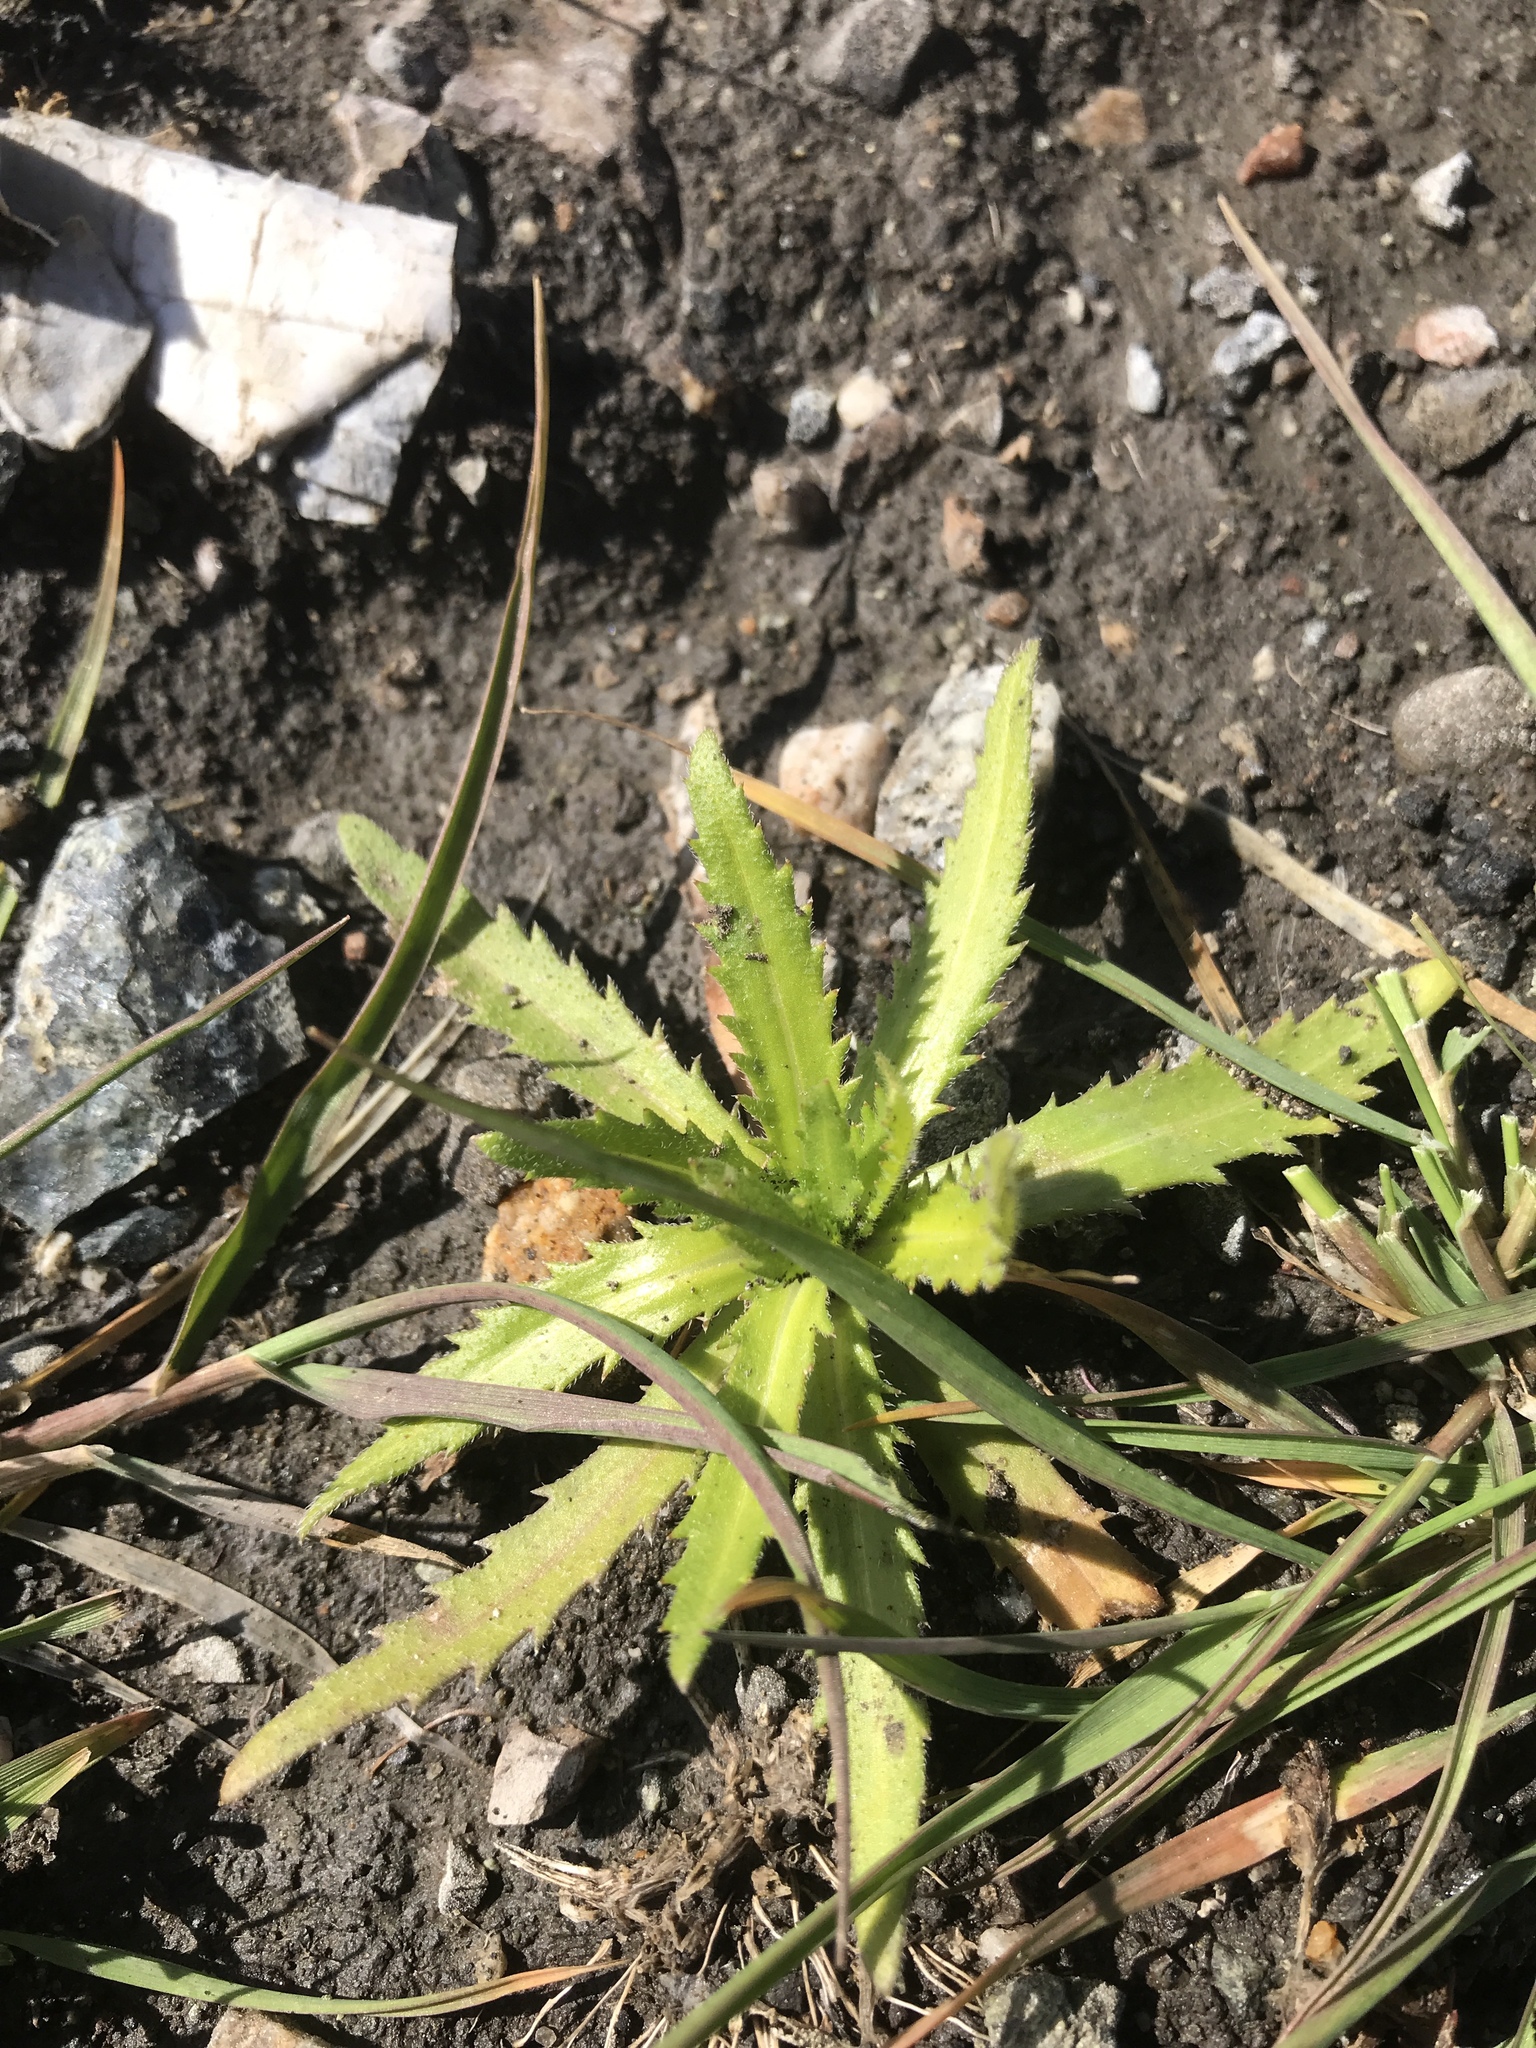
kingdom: Plantae
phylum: Tracheophyta
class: Magnoliopsida
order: Asterales
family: Asteraceae
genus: Hemizonia
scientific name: Hemizonia congesta
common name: Hayfield tarweed
